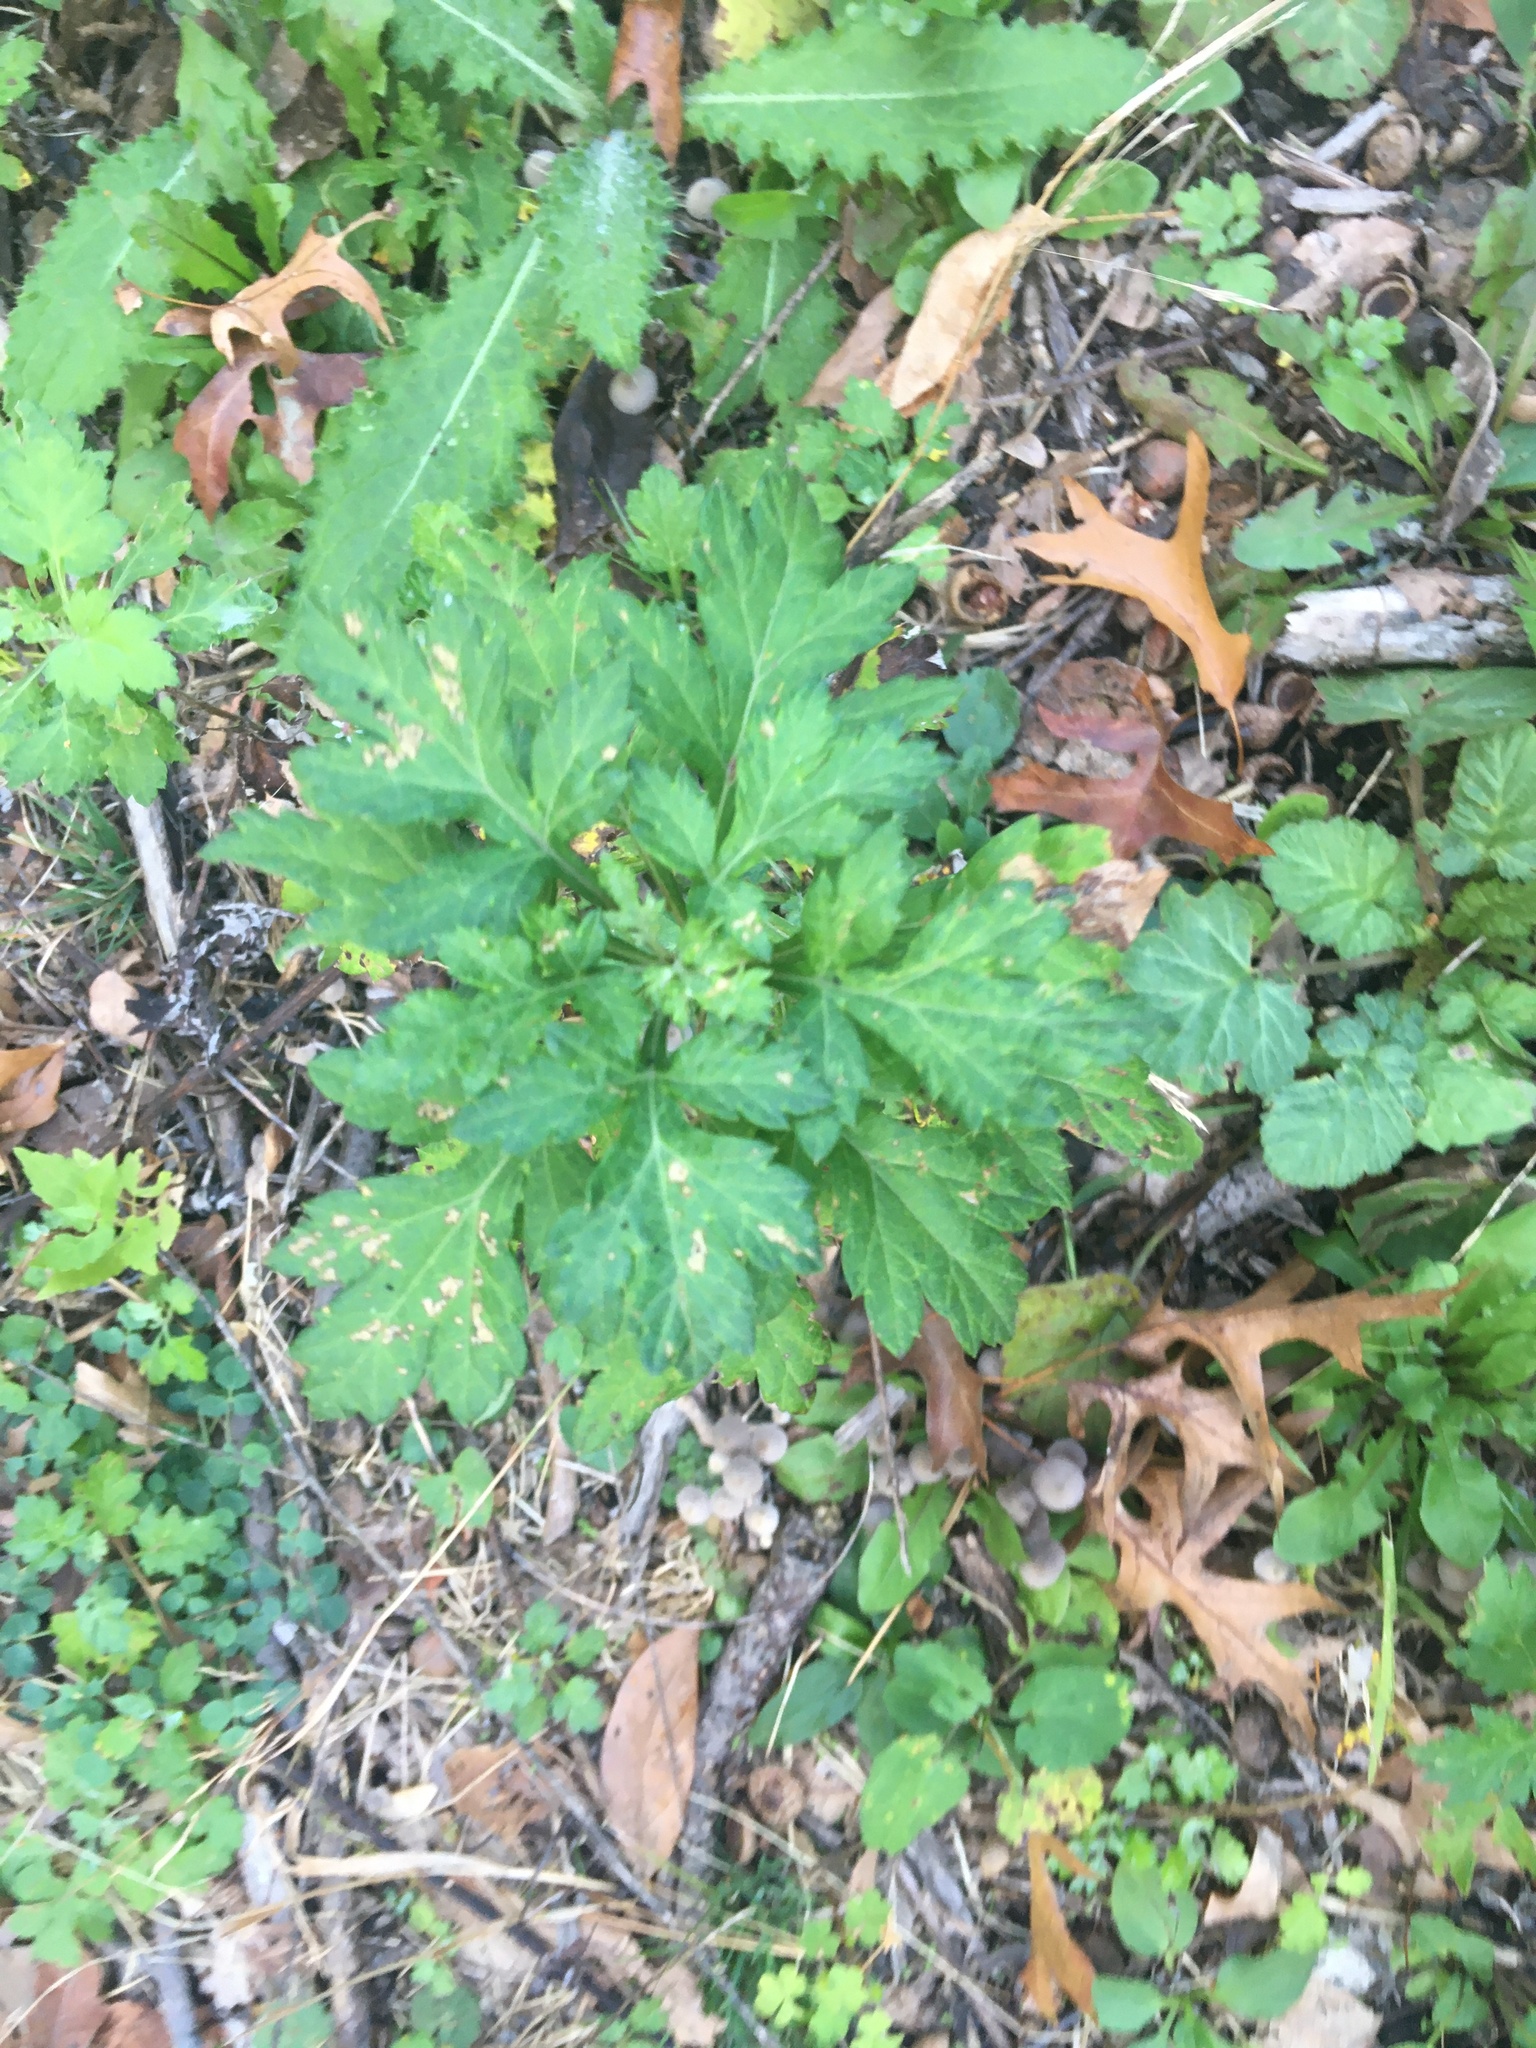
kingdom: Plantae
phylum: Tracheophyta
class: Magnoliopsida
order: Asterales
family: Asteraceae
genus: Artemisia
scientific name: Artemisia vulgaris
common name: Mugwort
